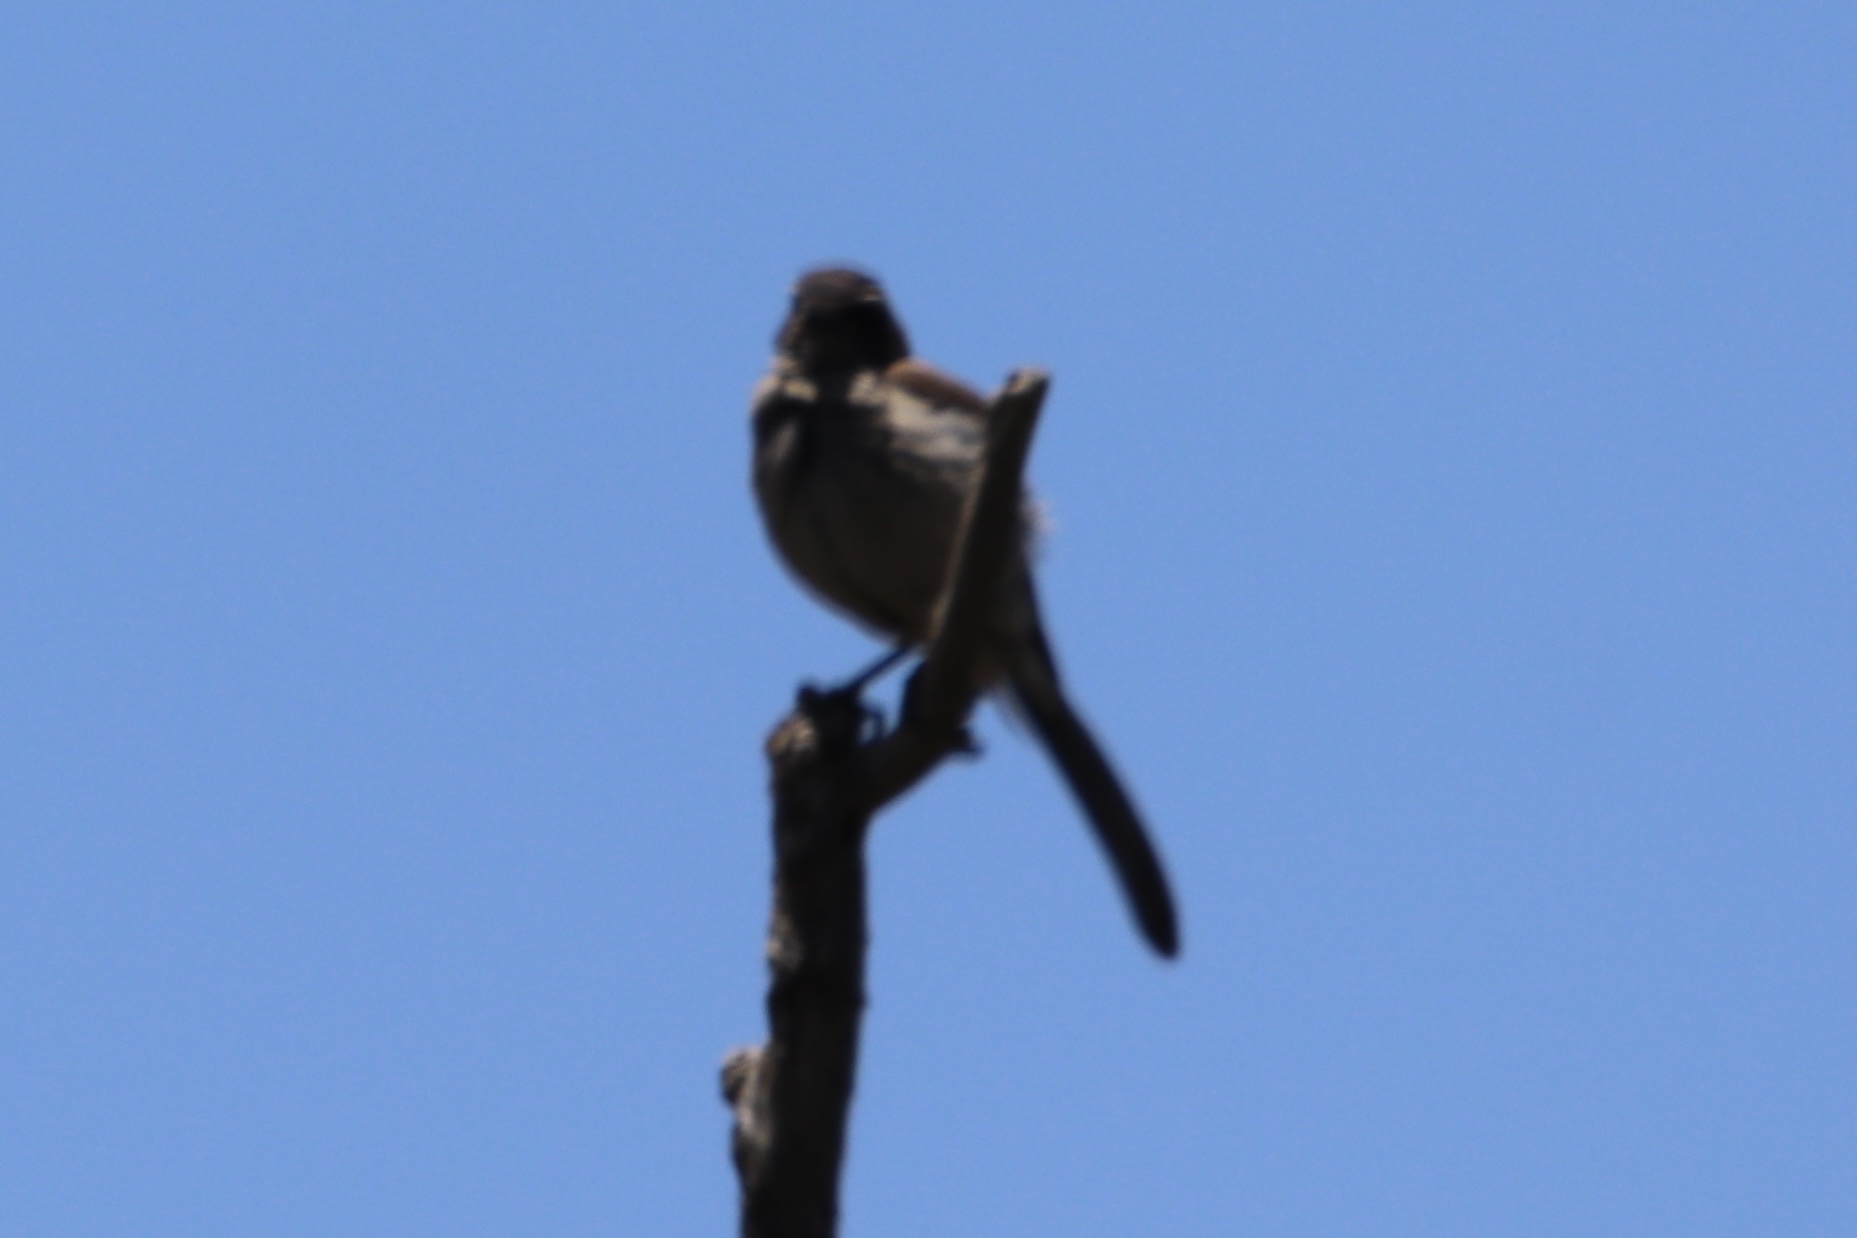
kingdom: Animalia
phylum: Chordata
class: Aves
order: Passeriformes
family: Corvidae
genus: Aphelocoma
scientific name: Aphelocoma californica
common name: California scrub-jay
